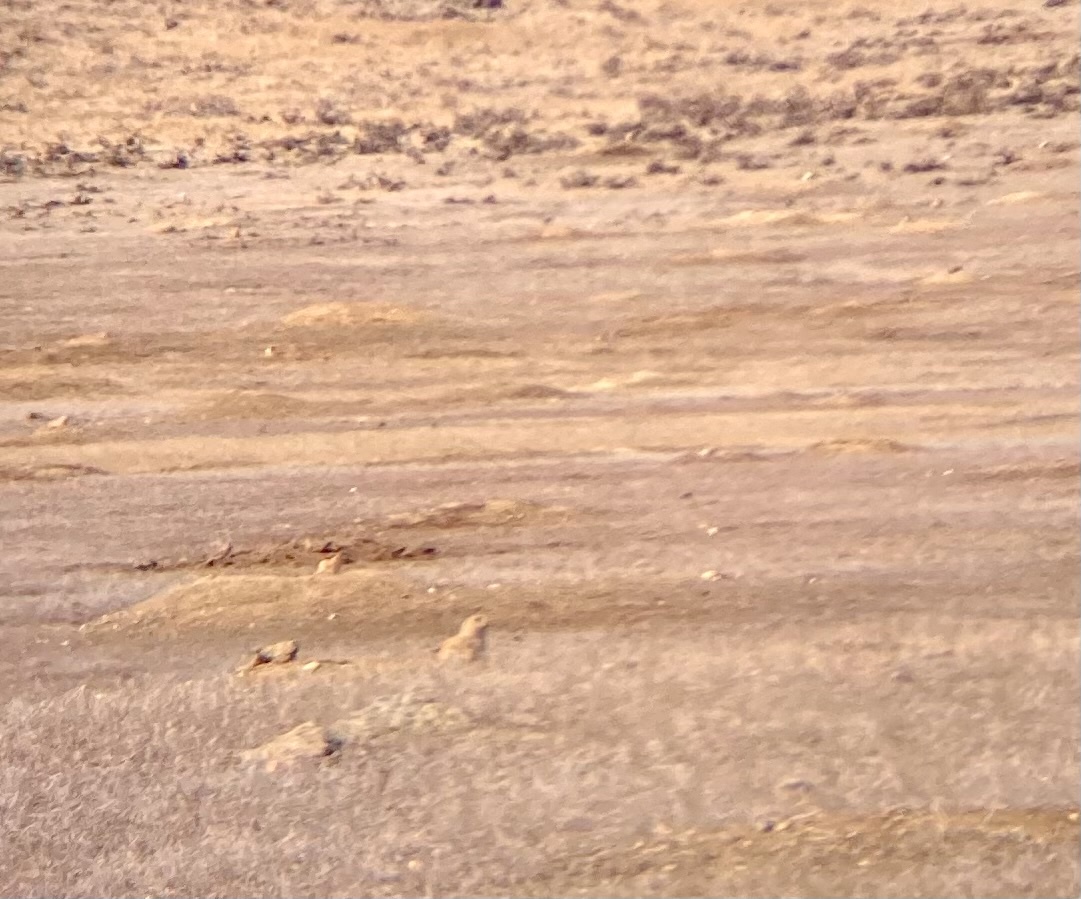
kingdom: Animalia
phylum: Chordata
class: Mammalia
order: Rodentia
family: Sciuridae
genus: Cynomys
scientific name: Cynomys ludovicianus
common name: Black-tailed prairie dog
